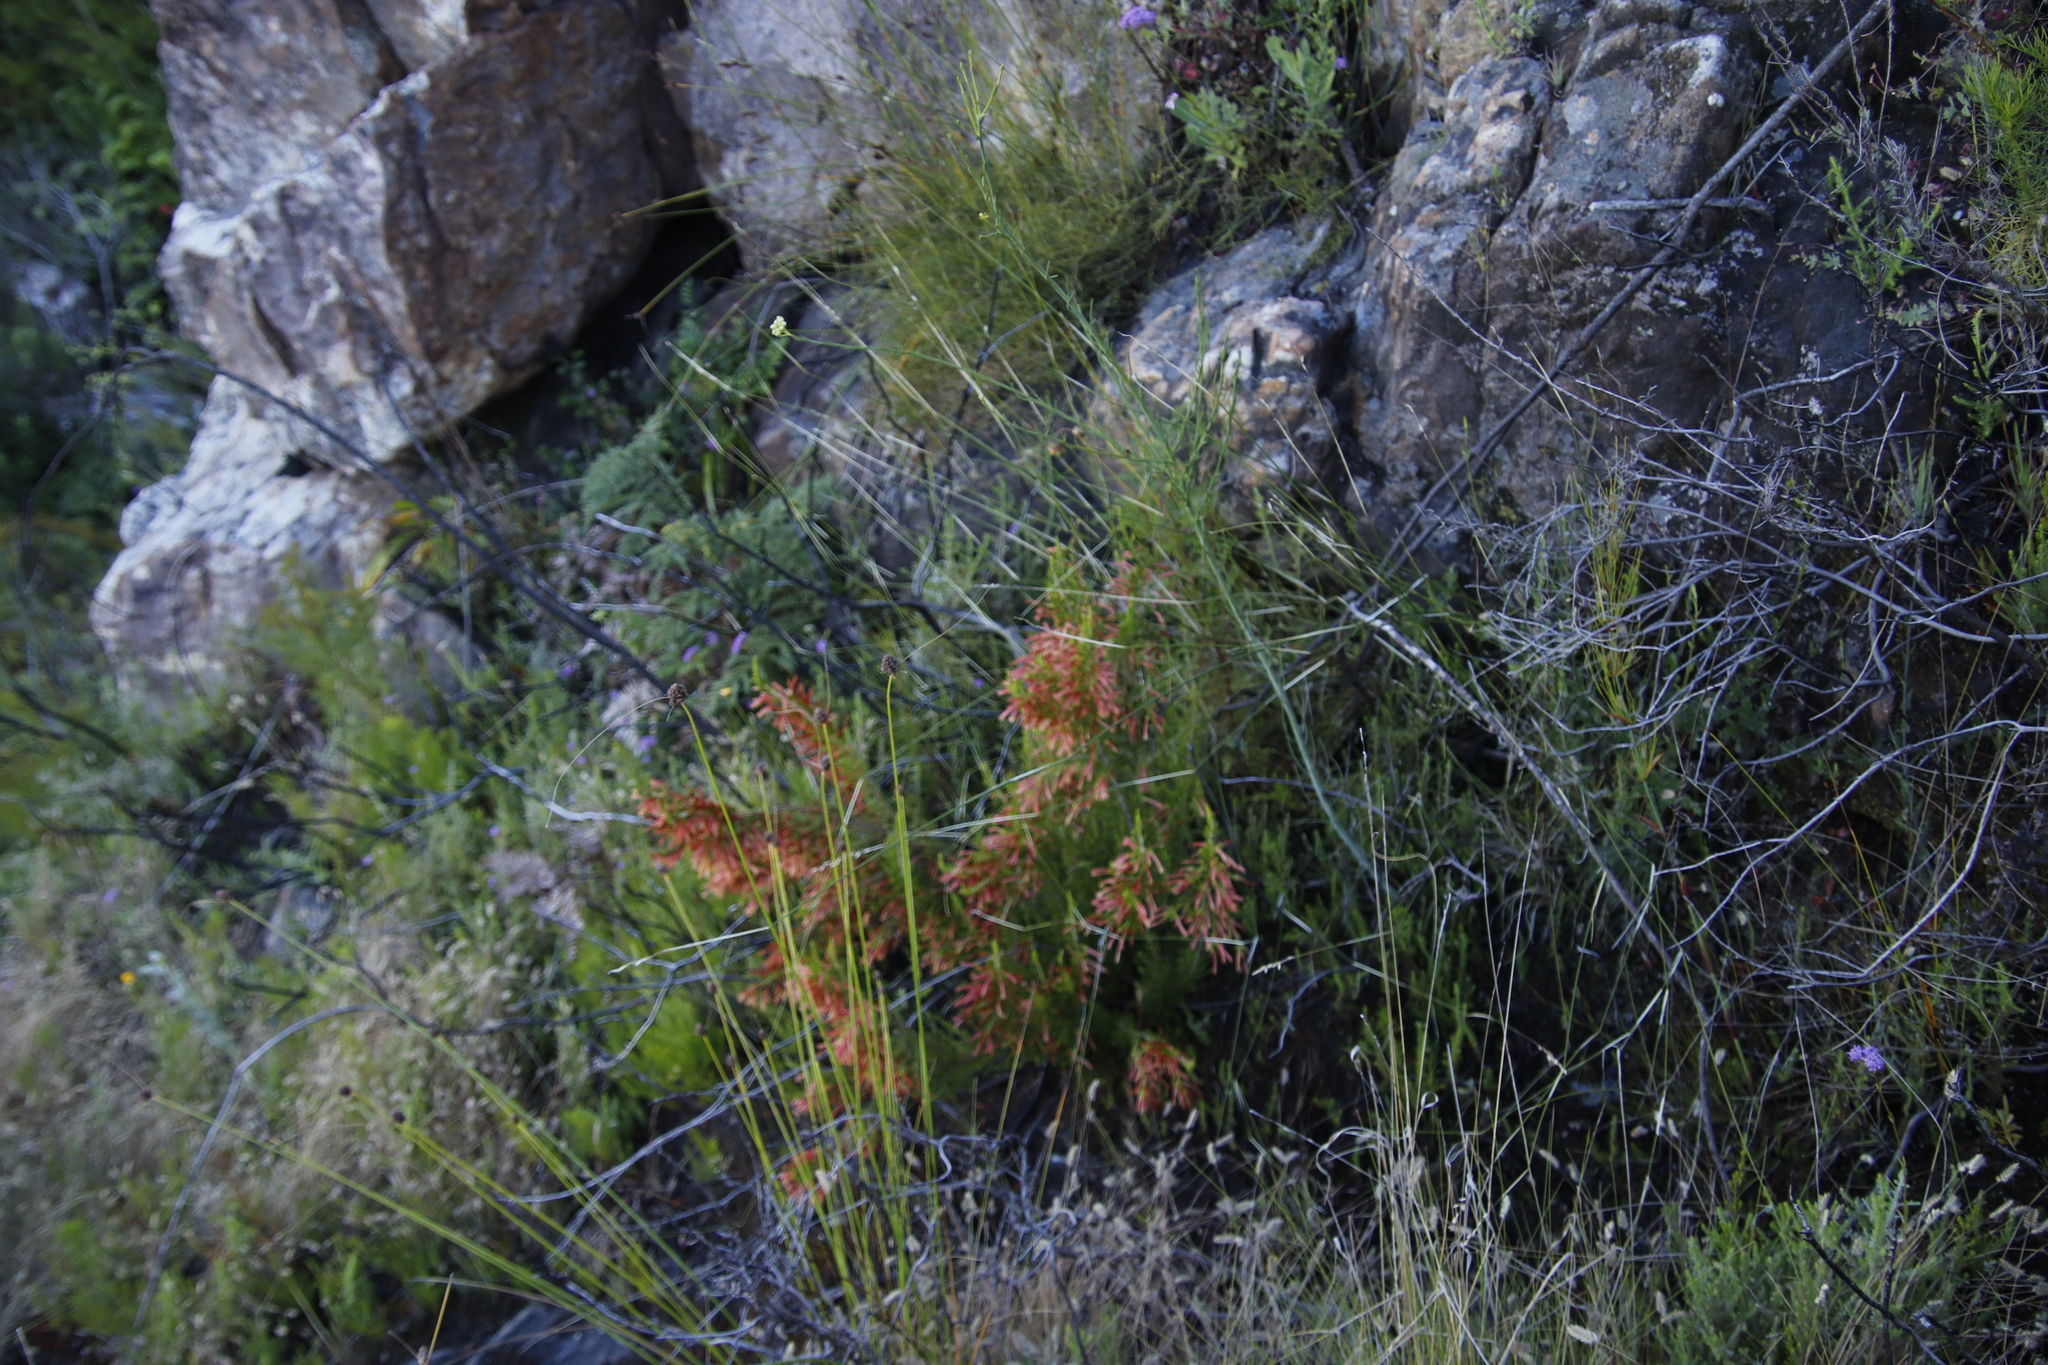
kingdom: Plantae
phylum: Tracheophyta
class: Magnoliopsida
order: Ericales
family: Ericaceae
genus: Erica
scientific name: Erica curviflora
